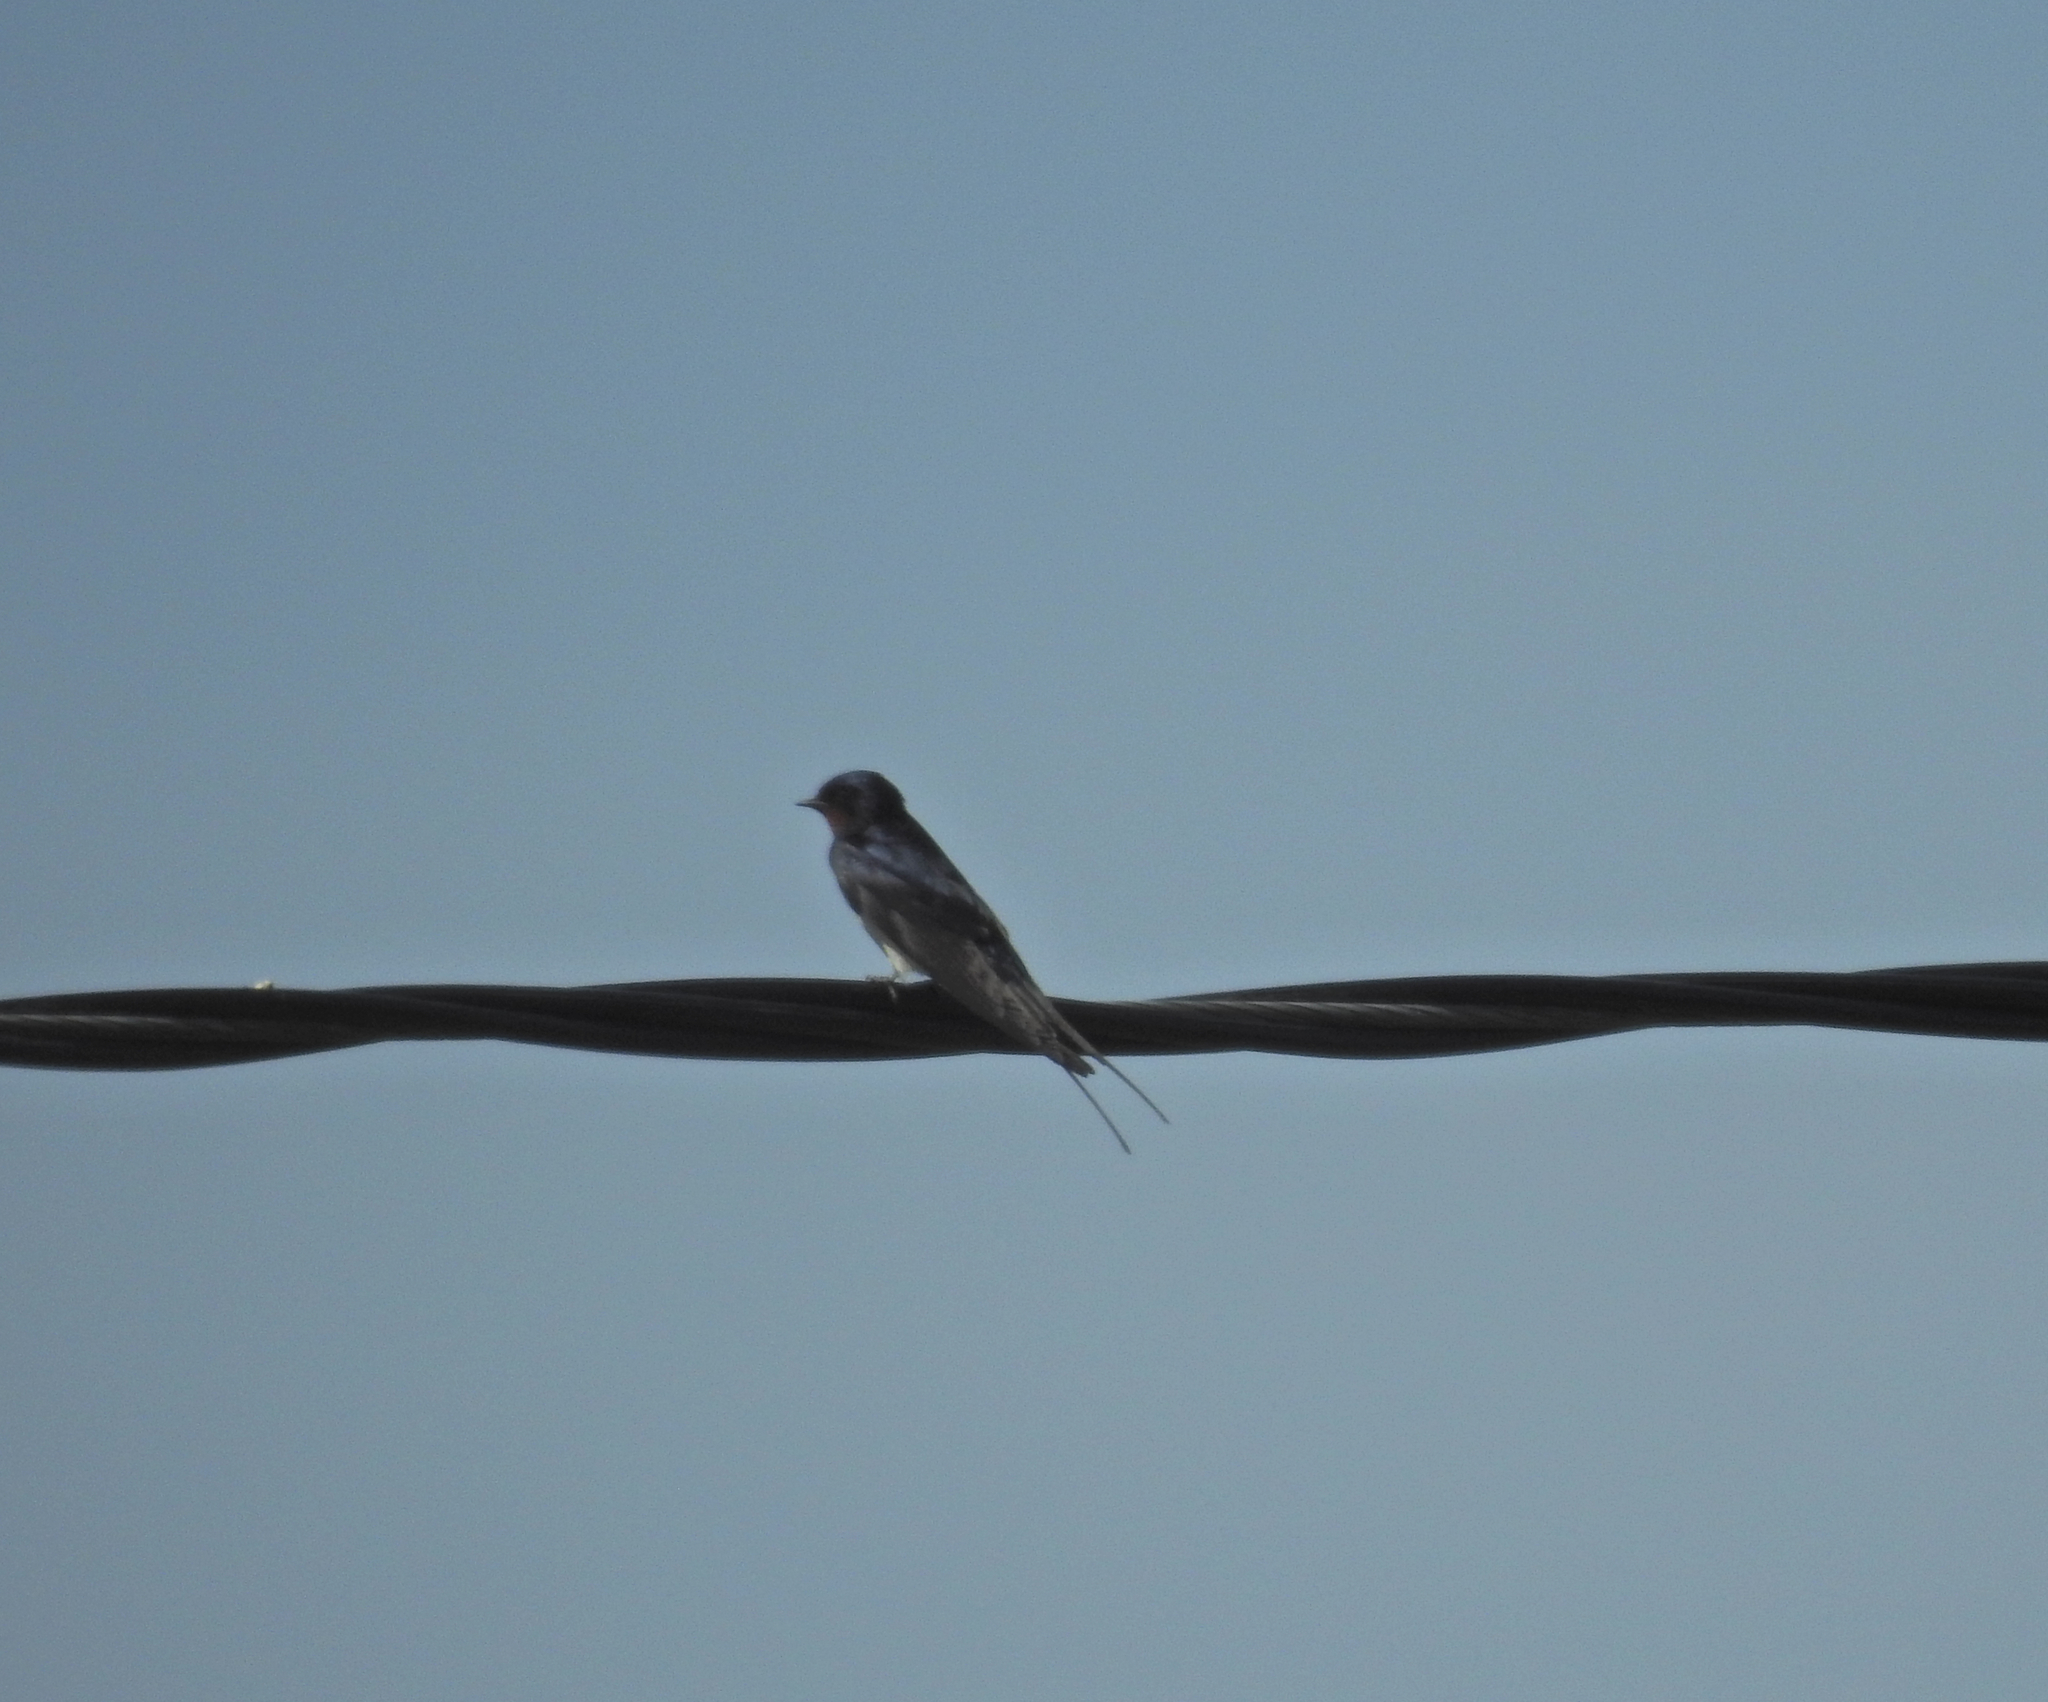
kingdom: Animalia
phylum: Chordata
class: Aves
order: Passeriformes
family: Hirundinidae
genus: Hirundo
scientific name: Hirundo rustica
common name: Barn swallow
